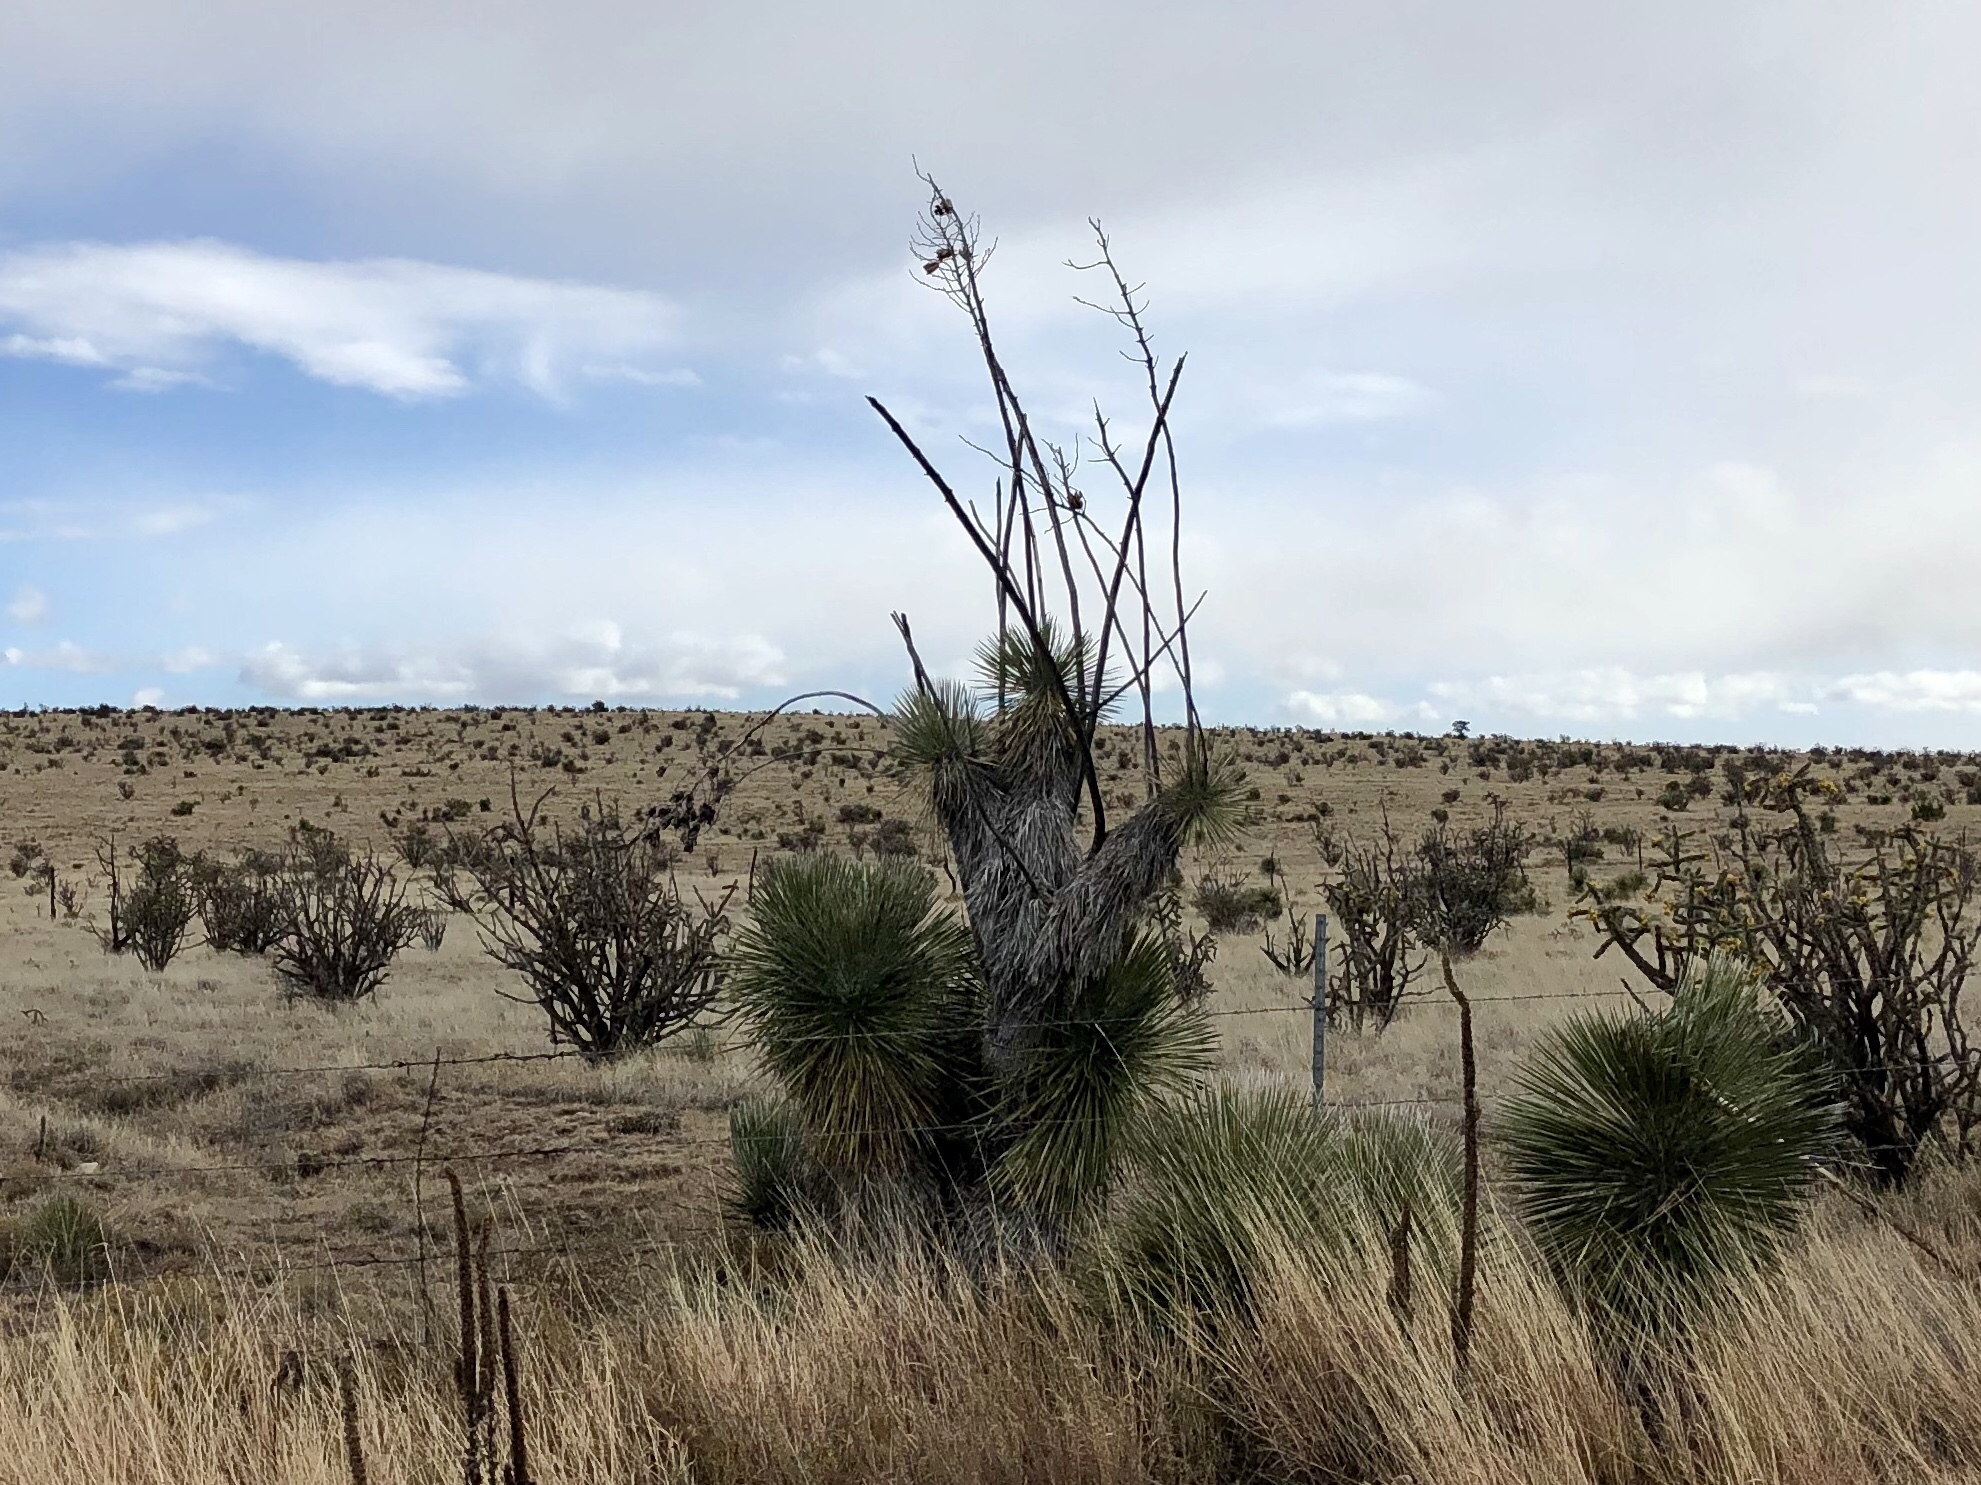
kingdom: Plantae
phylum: Tracheophyta
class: Liliopsida
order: Asparagales
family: Asparagaceae
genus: Yucca
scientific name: Yucca elata
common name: Palmella
